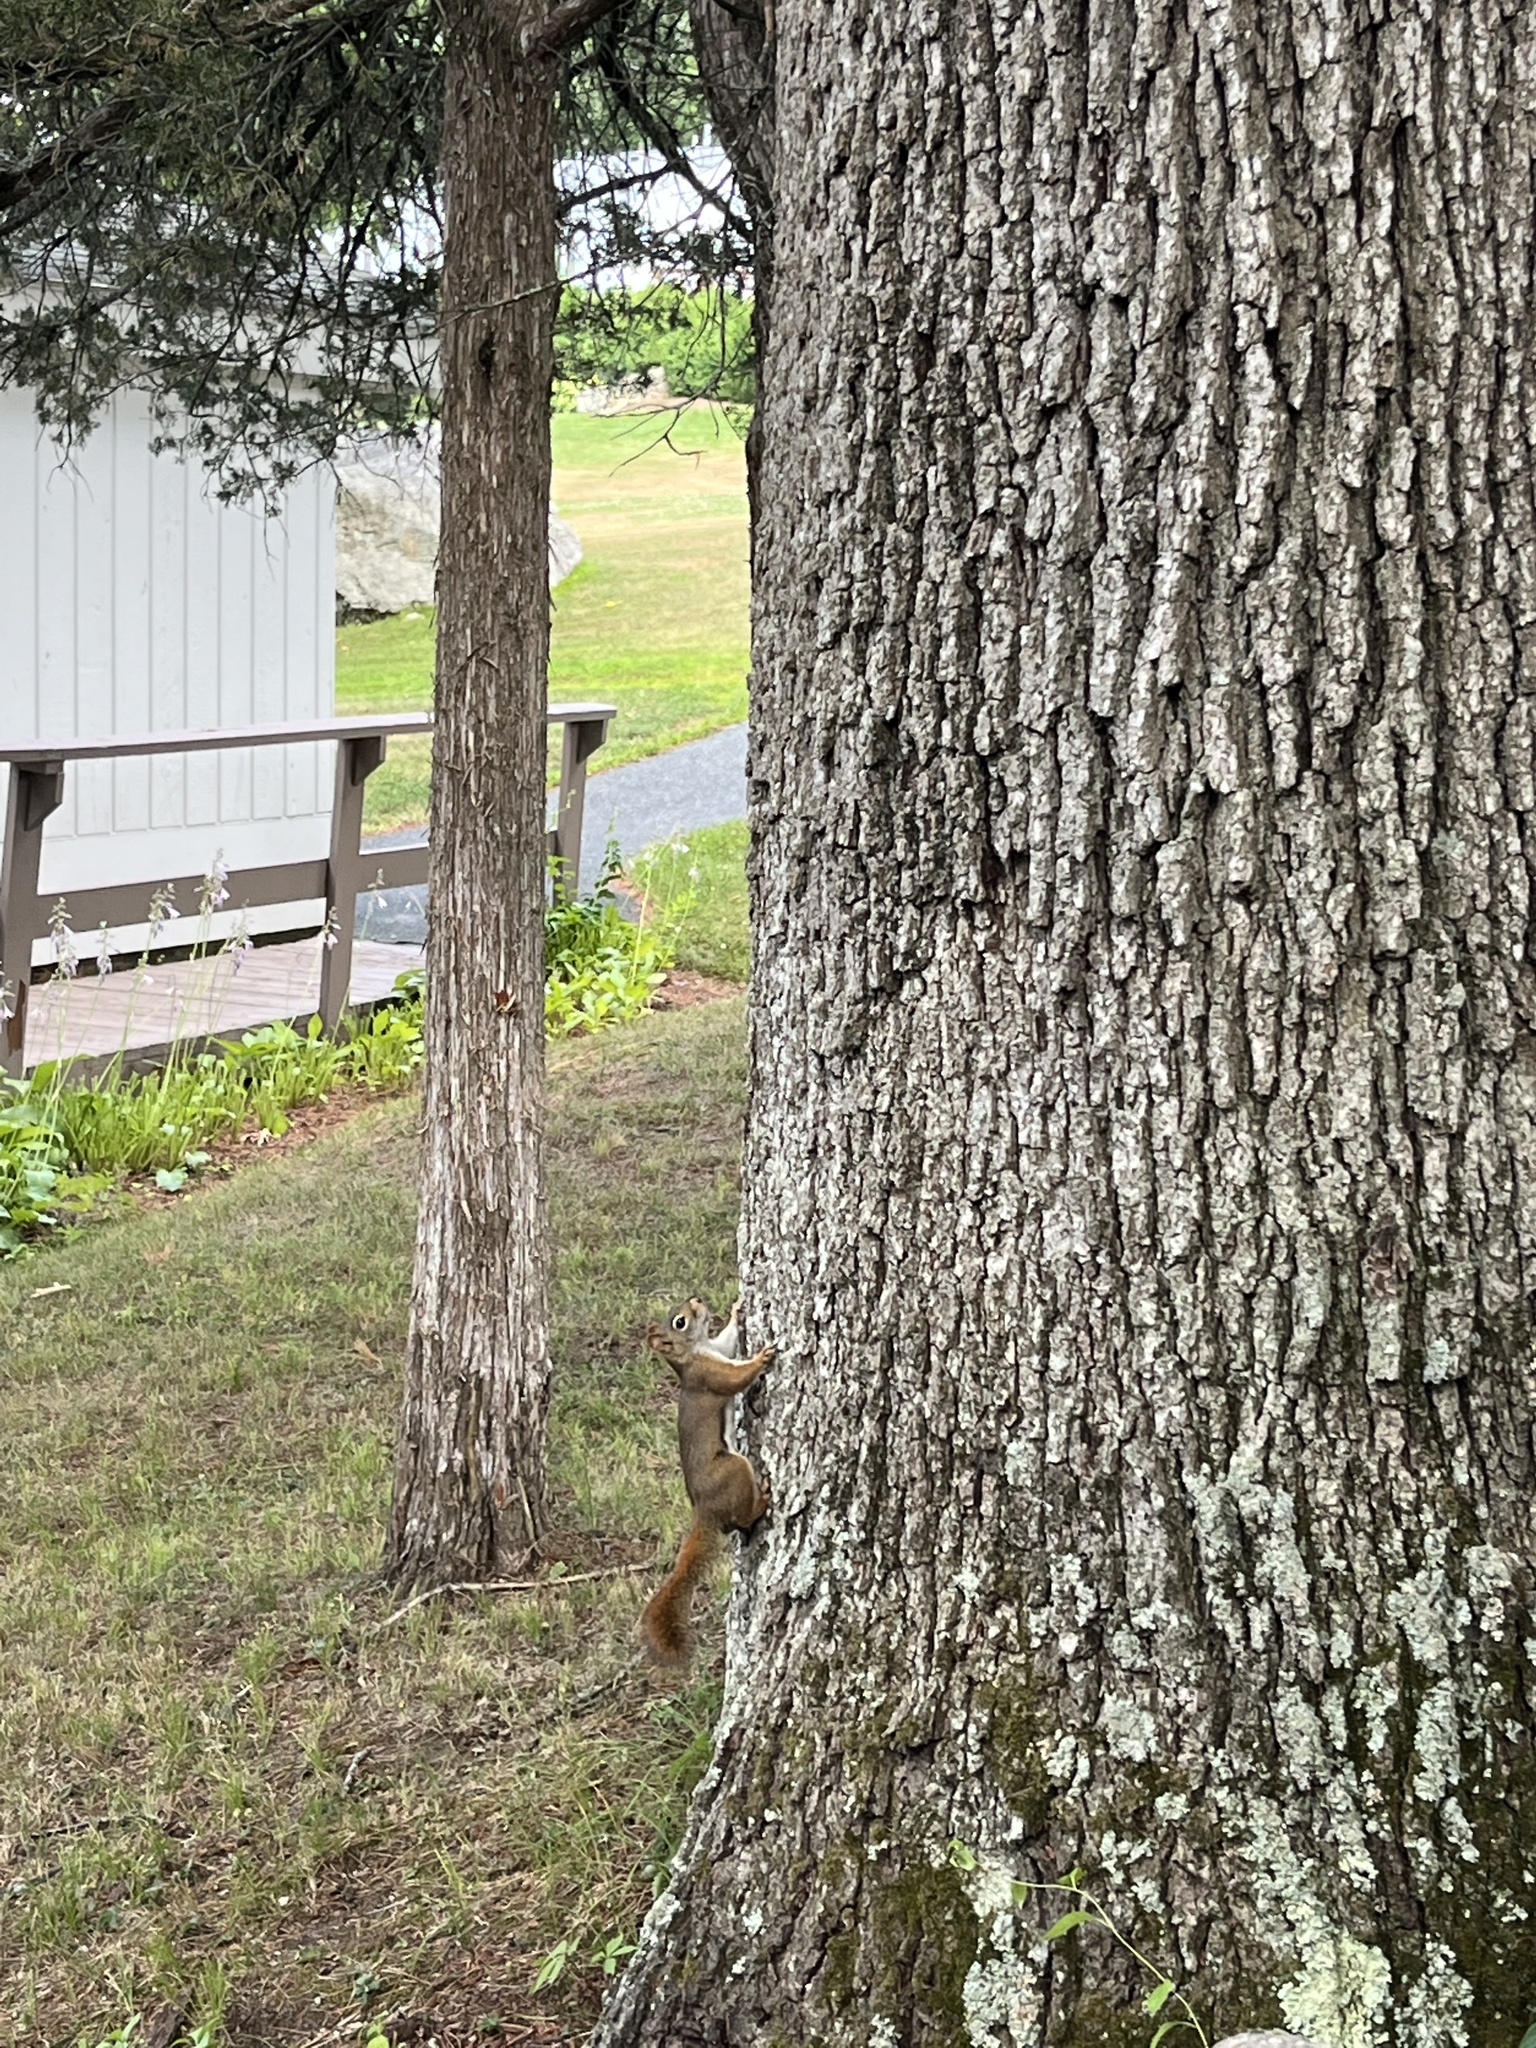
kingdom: Animalia
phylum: Chordata
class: Mammalia
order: Rodentia
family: Sciuridae
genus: Tamiasciurus
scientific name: Tamiasciurus hudsonicus
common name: Red squirrel
